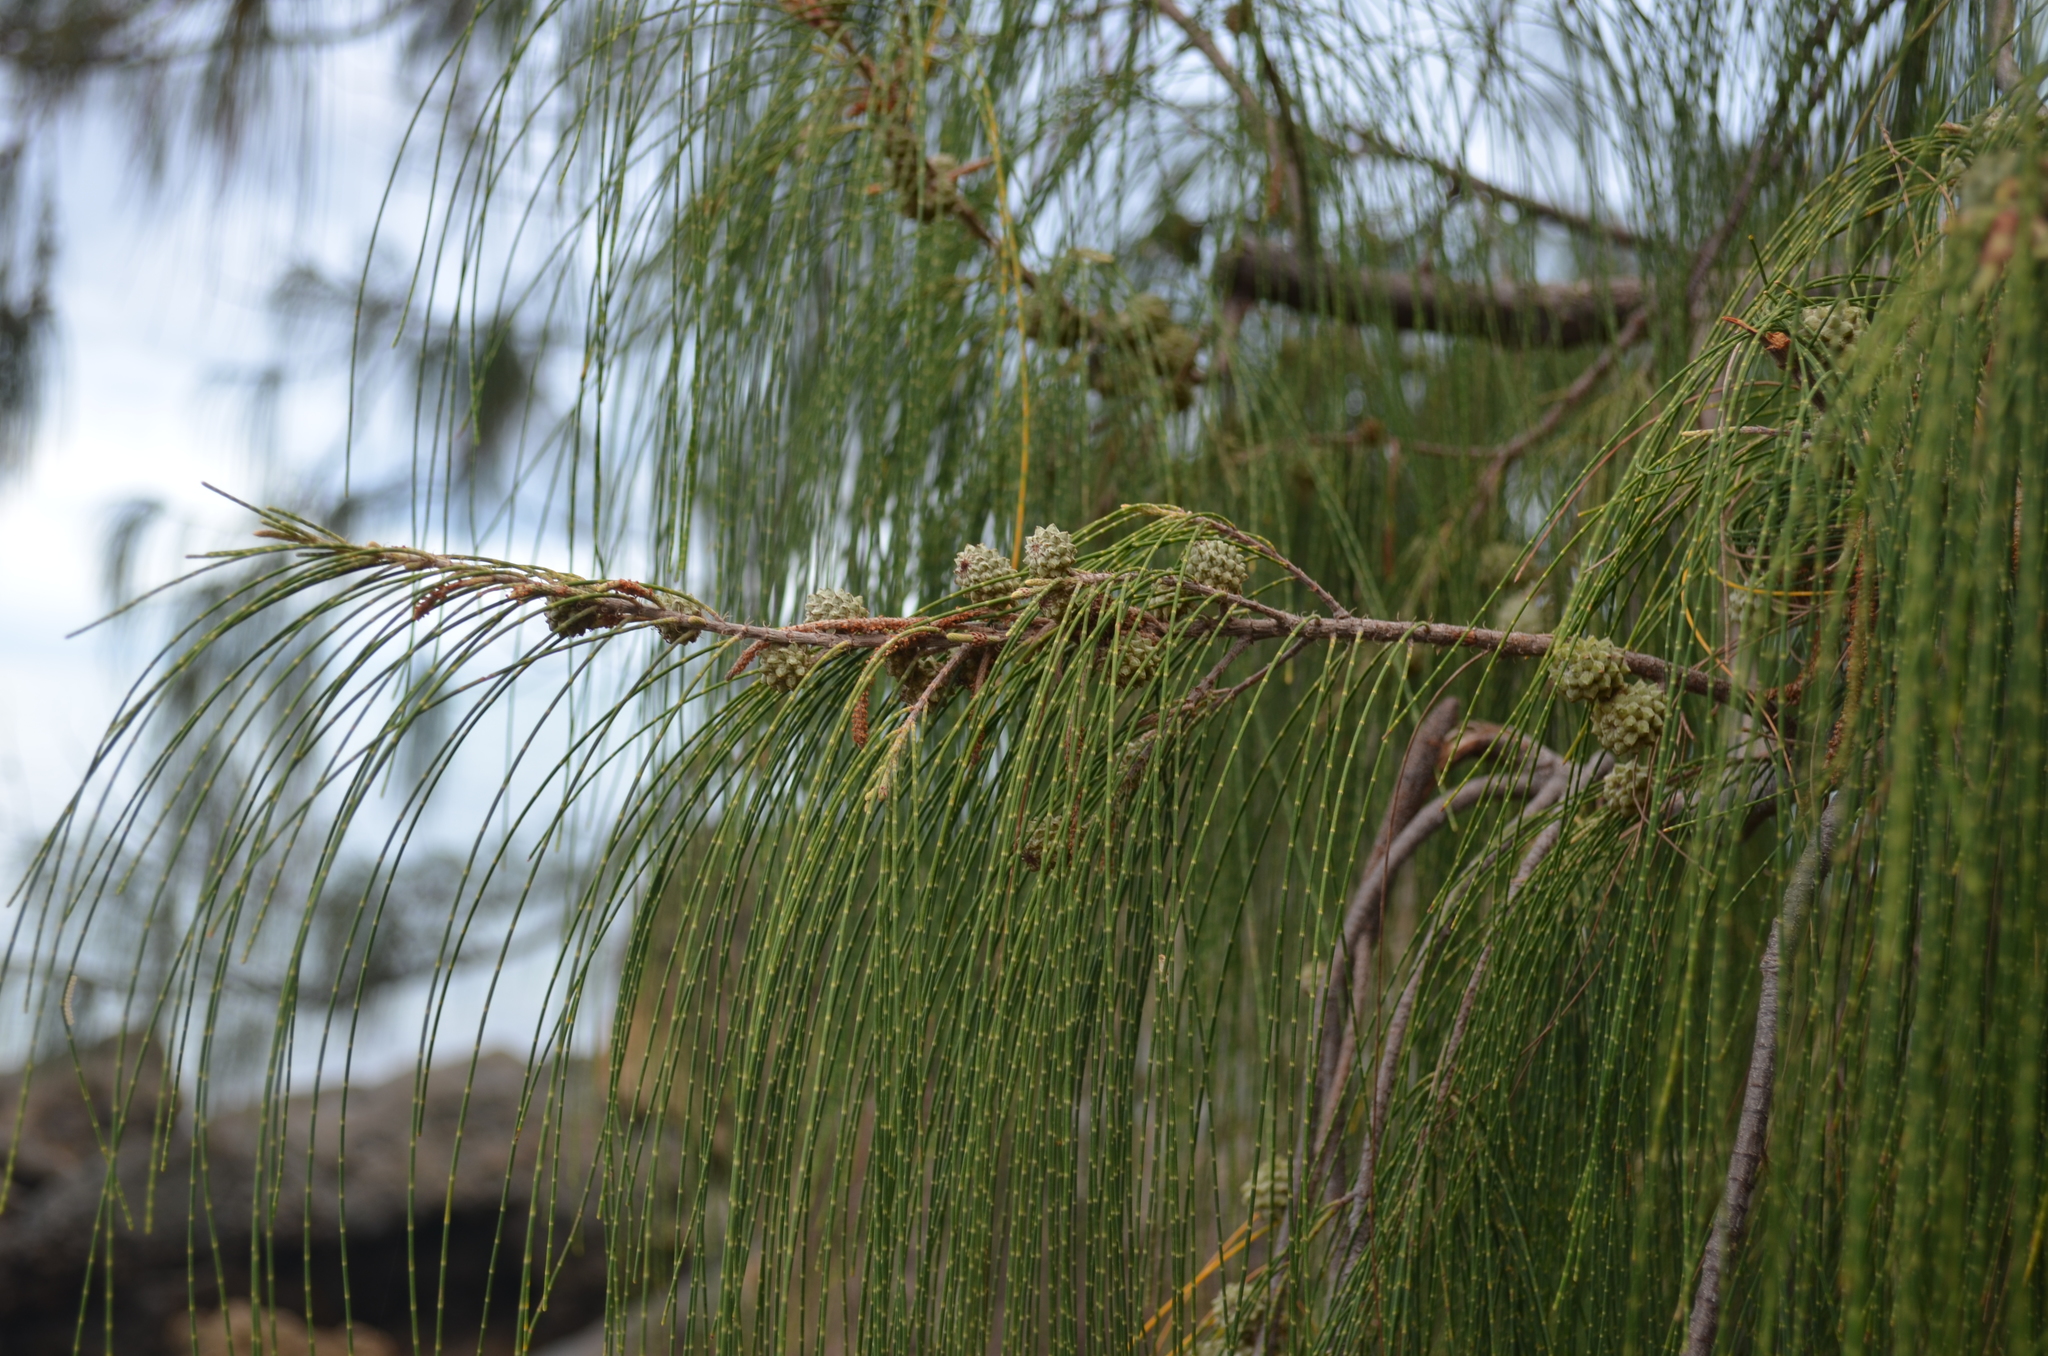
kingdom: Plantae
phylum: Tracheophyta
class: Magnoliopsida
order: Fagales
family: Casuarinaceae
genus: Casuarina
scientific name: Casuarina equisetifolia
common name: Beach sheoak
